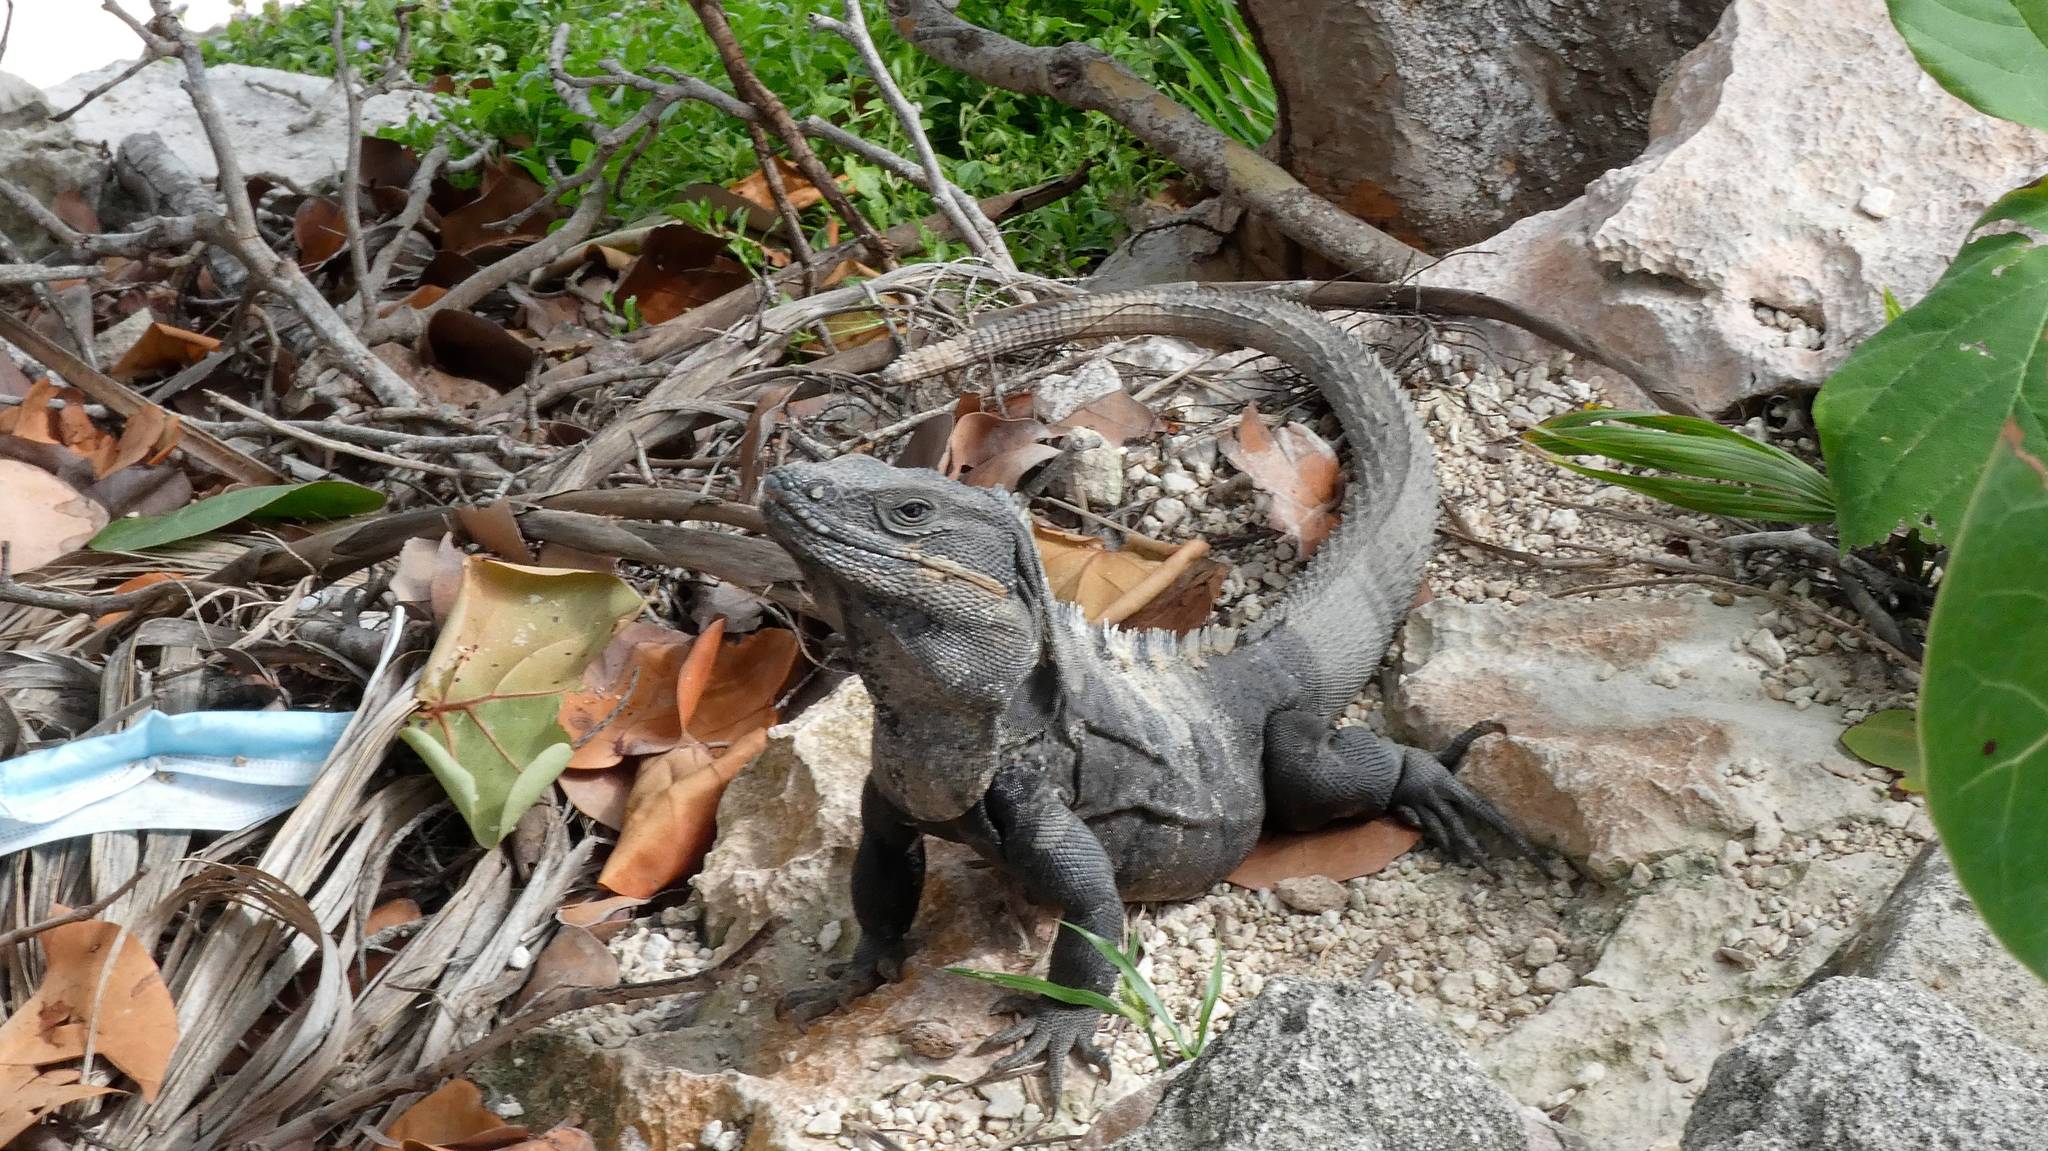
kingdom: Animalia
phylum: Chordata
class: Squamata
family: Iguanidae
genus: Ctenosaura
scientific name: Ctenosaura similis
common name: Black spiny-tailed iguana
